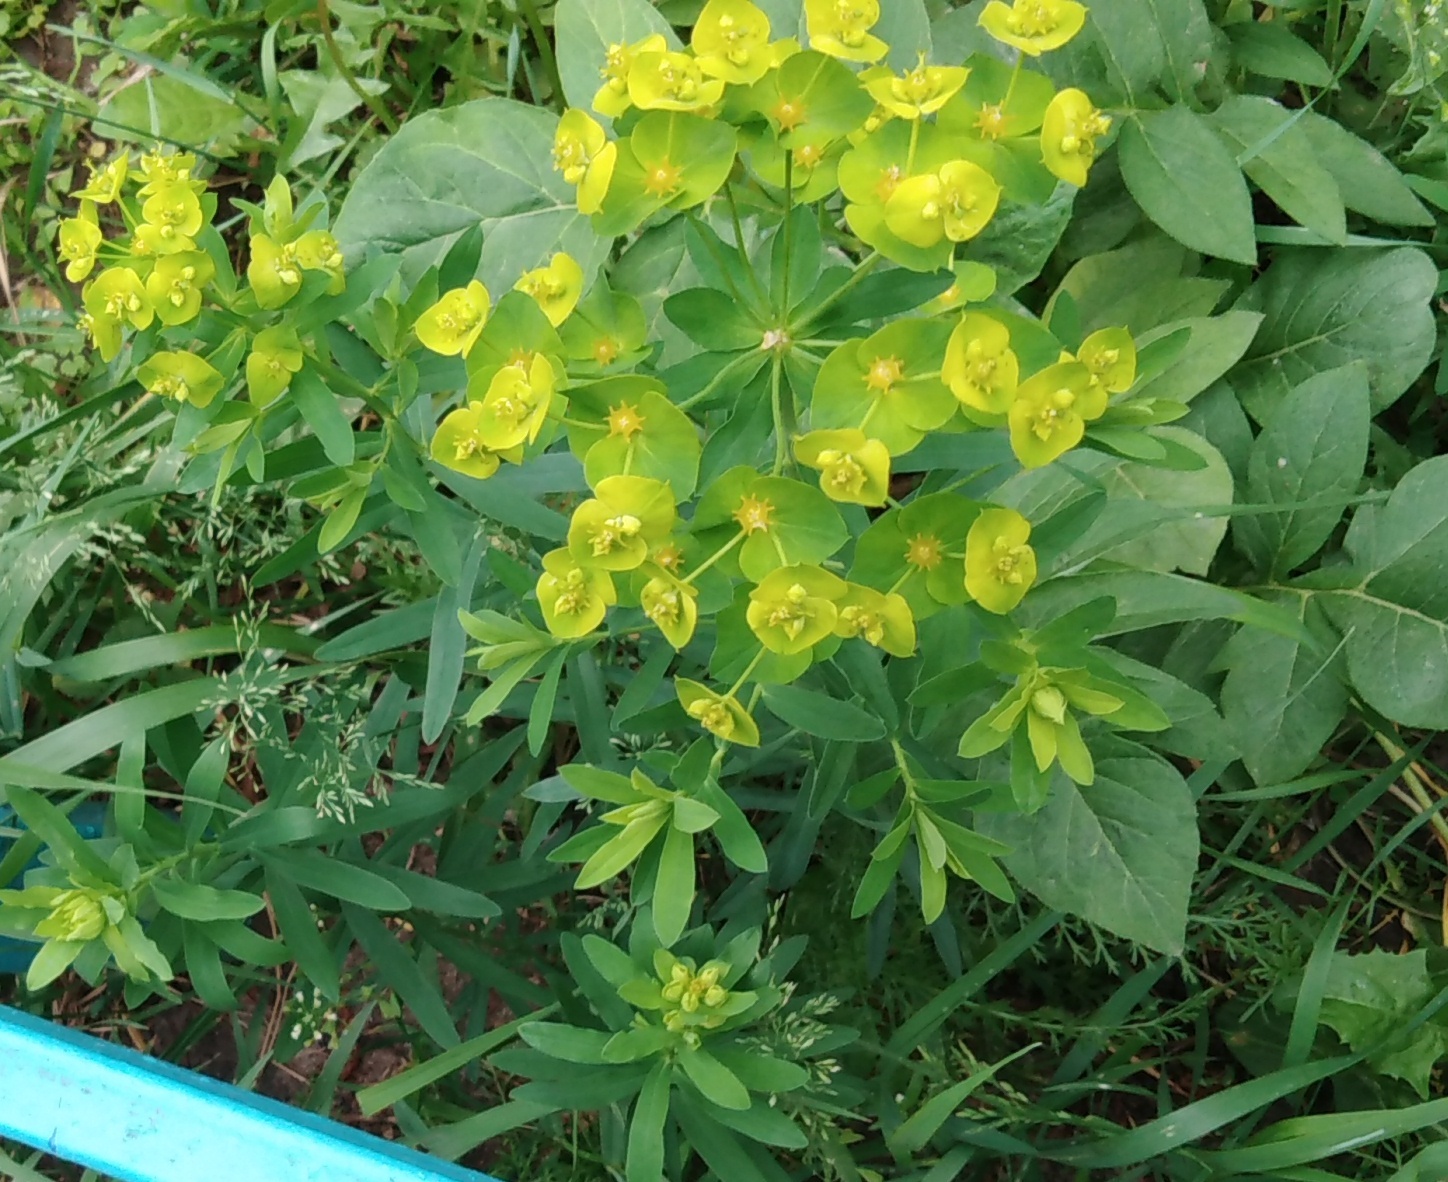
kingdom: Plantae
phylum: Tracheophyta
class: Magnoliopsida
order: Malpighiales
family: Euphorbiaceae
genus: Euphorbia
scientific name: Euphorbia virgata
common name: Leafy spurge
